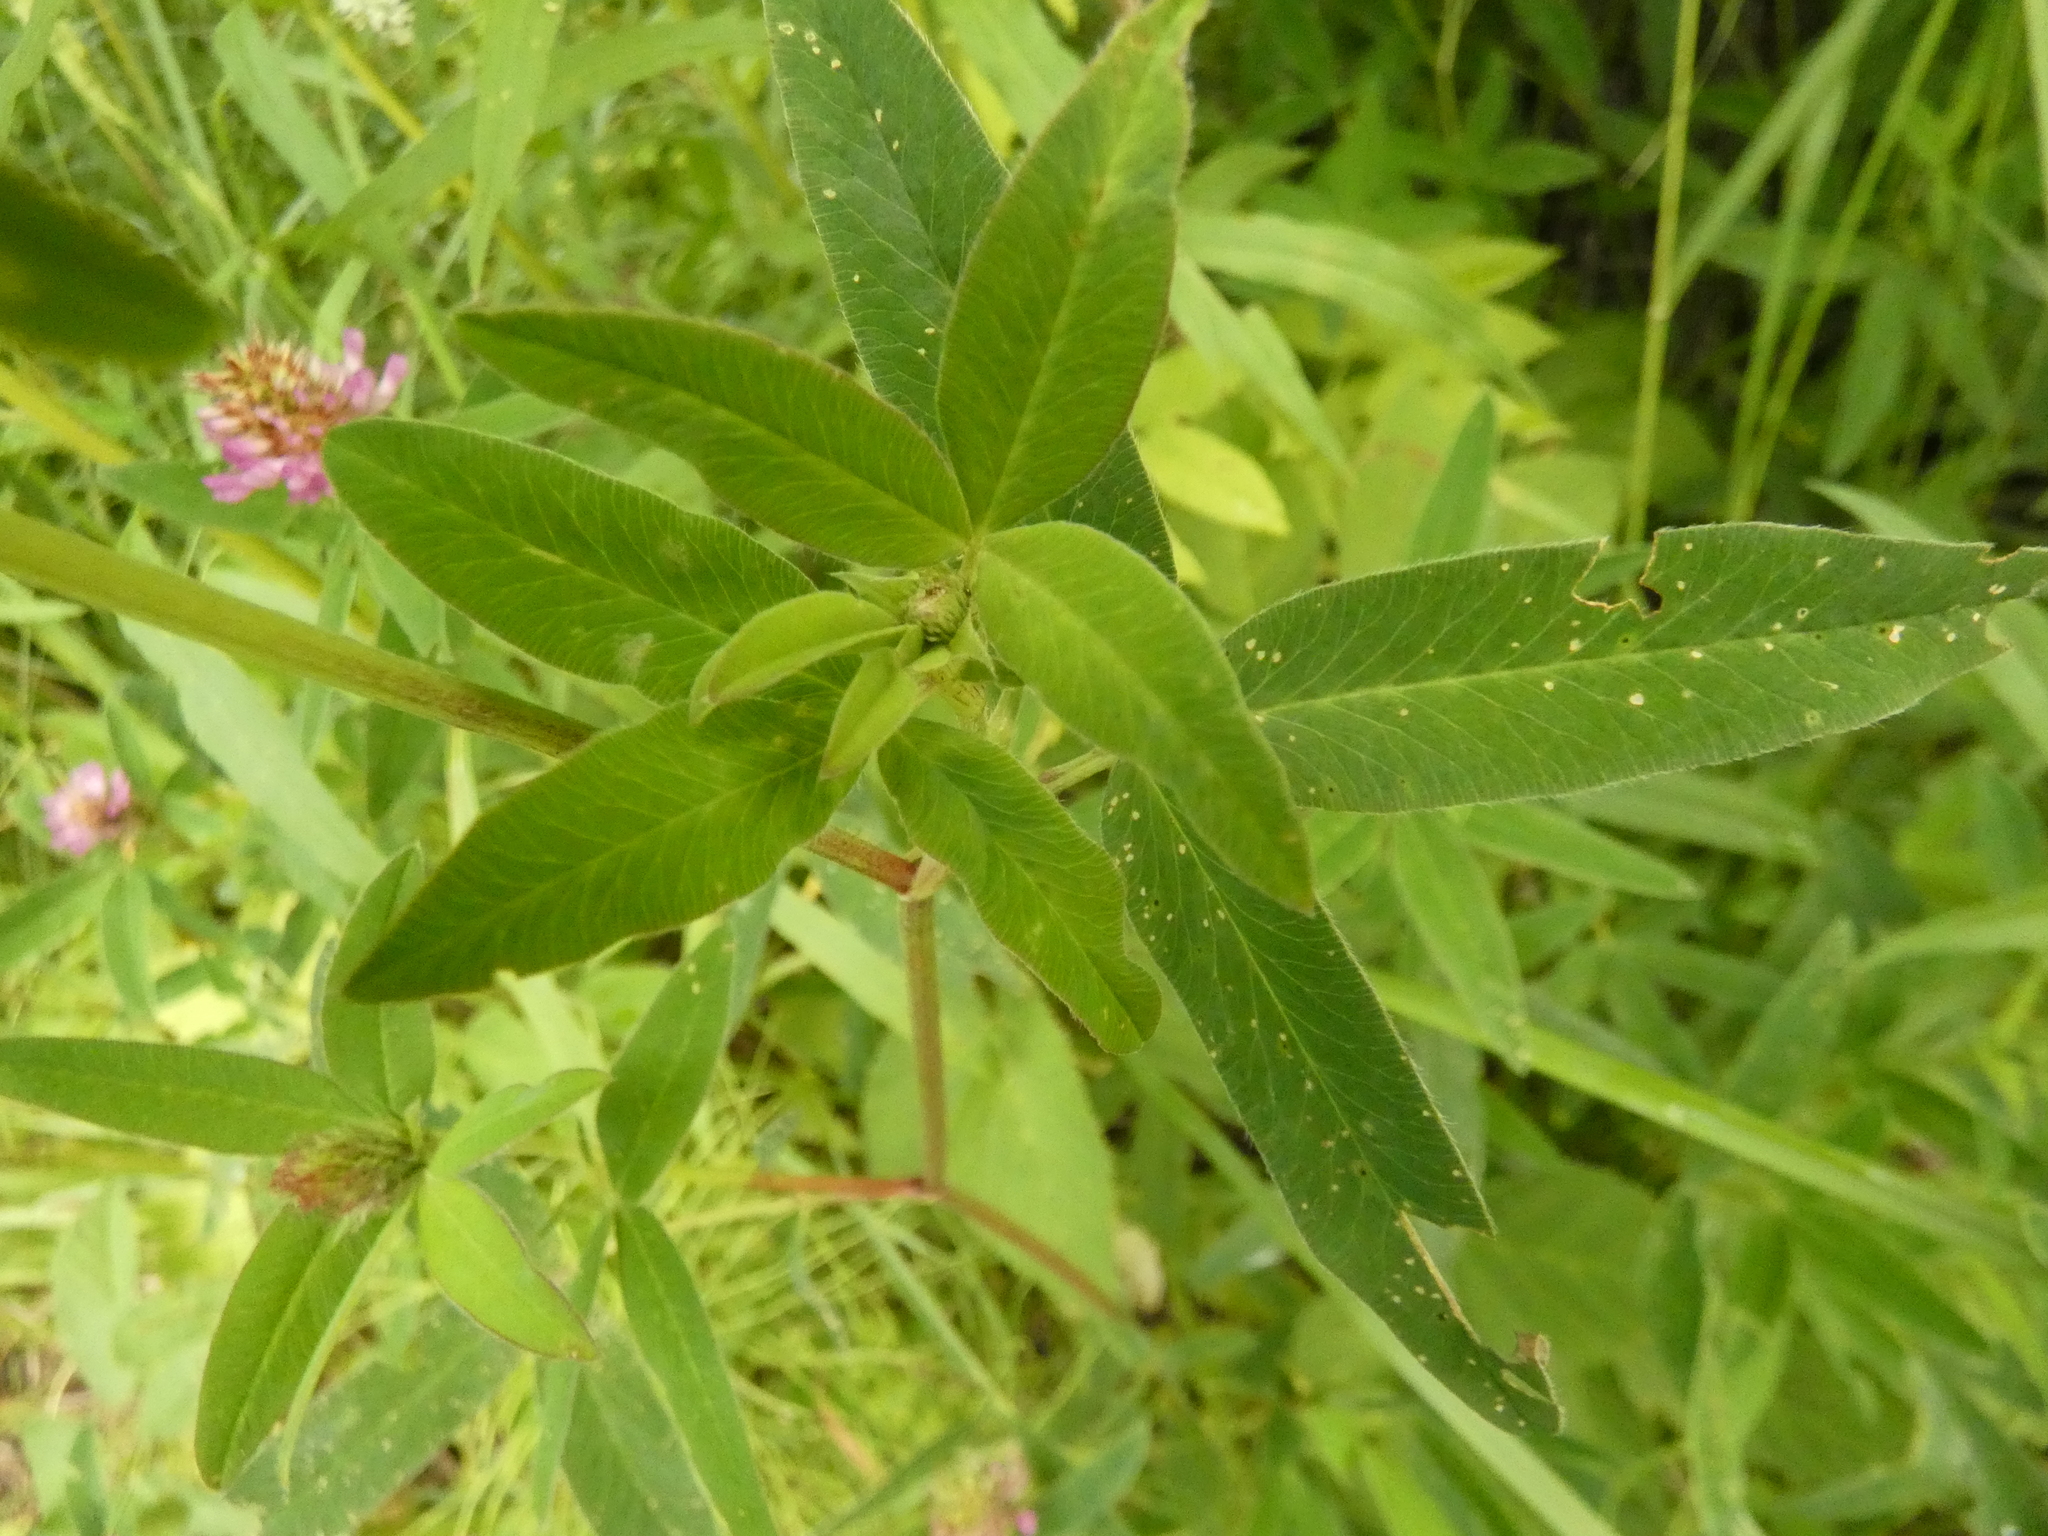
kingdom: Plantae
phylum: Tracheophyta
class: Magnoliopsida
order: Fabales
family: Fabaceae
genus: Trifolium
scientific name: Trifolium medium
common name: Zigzag clover
